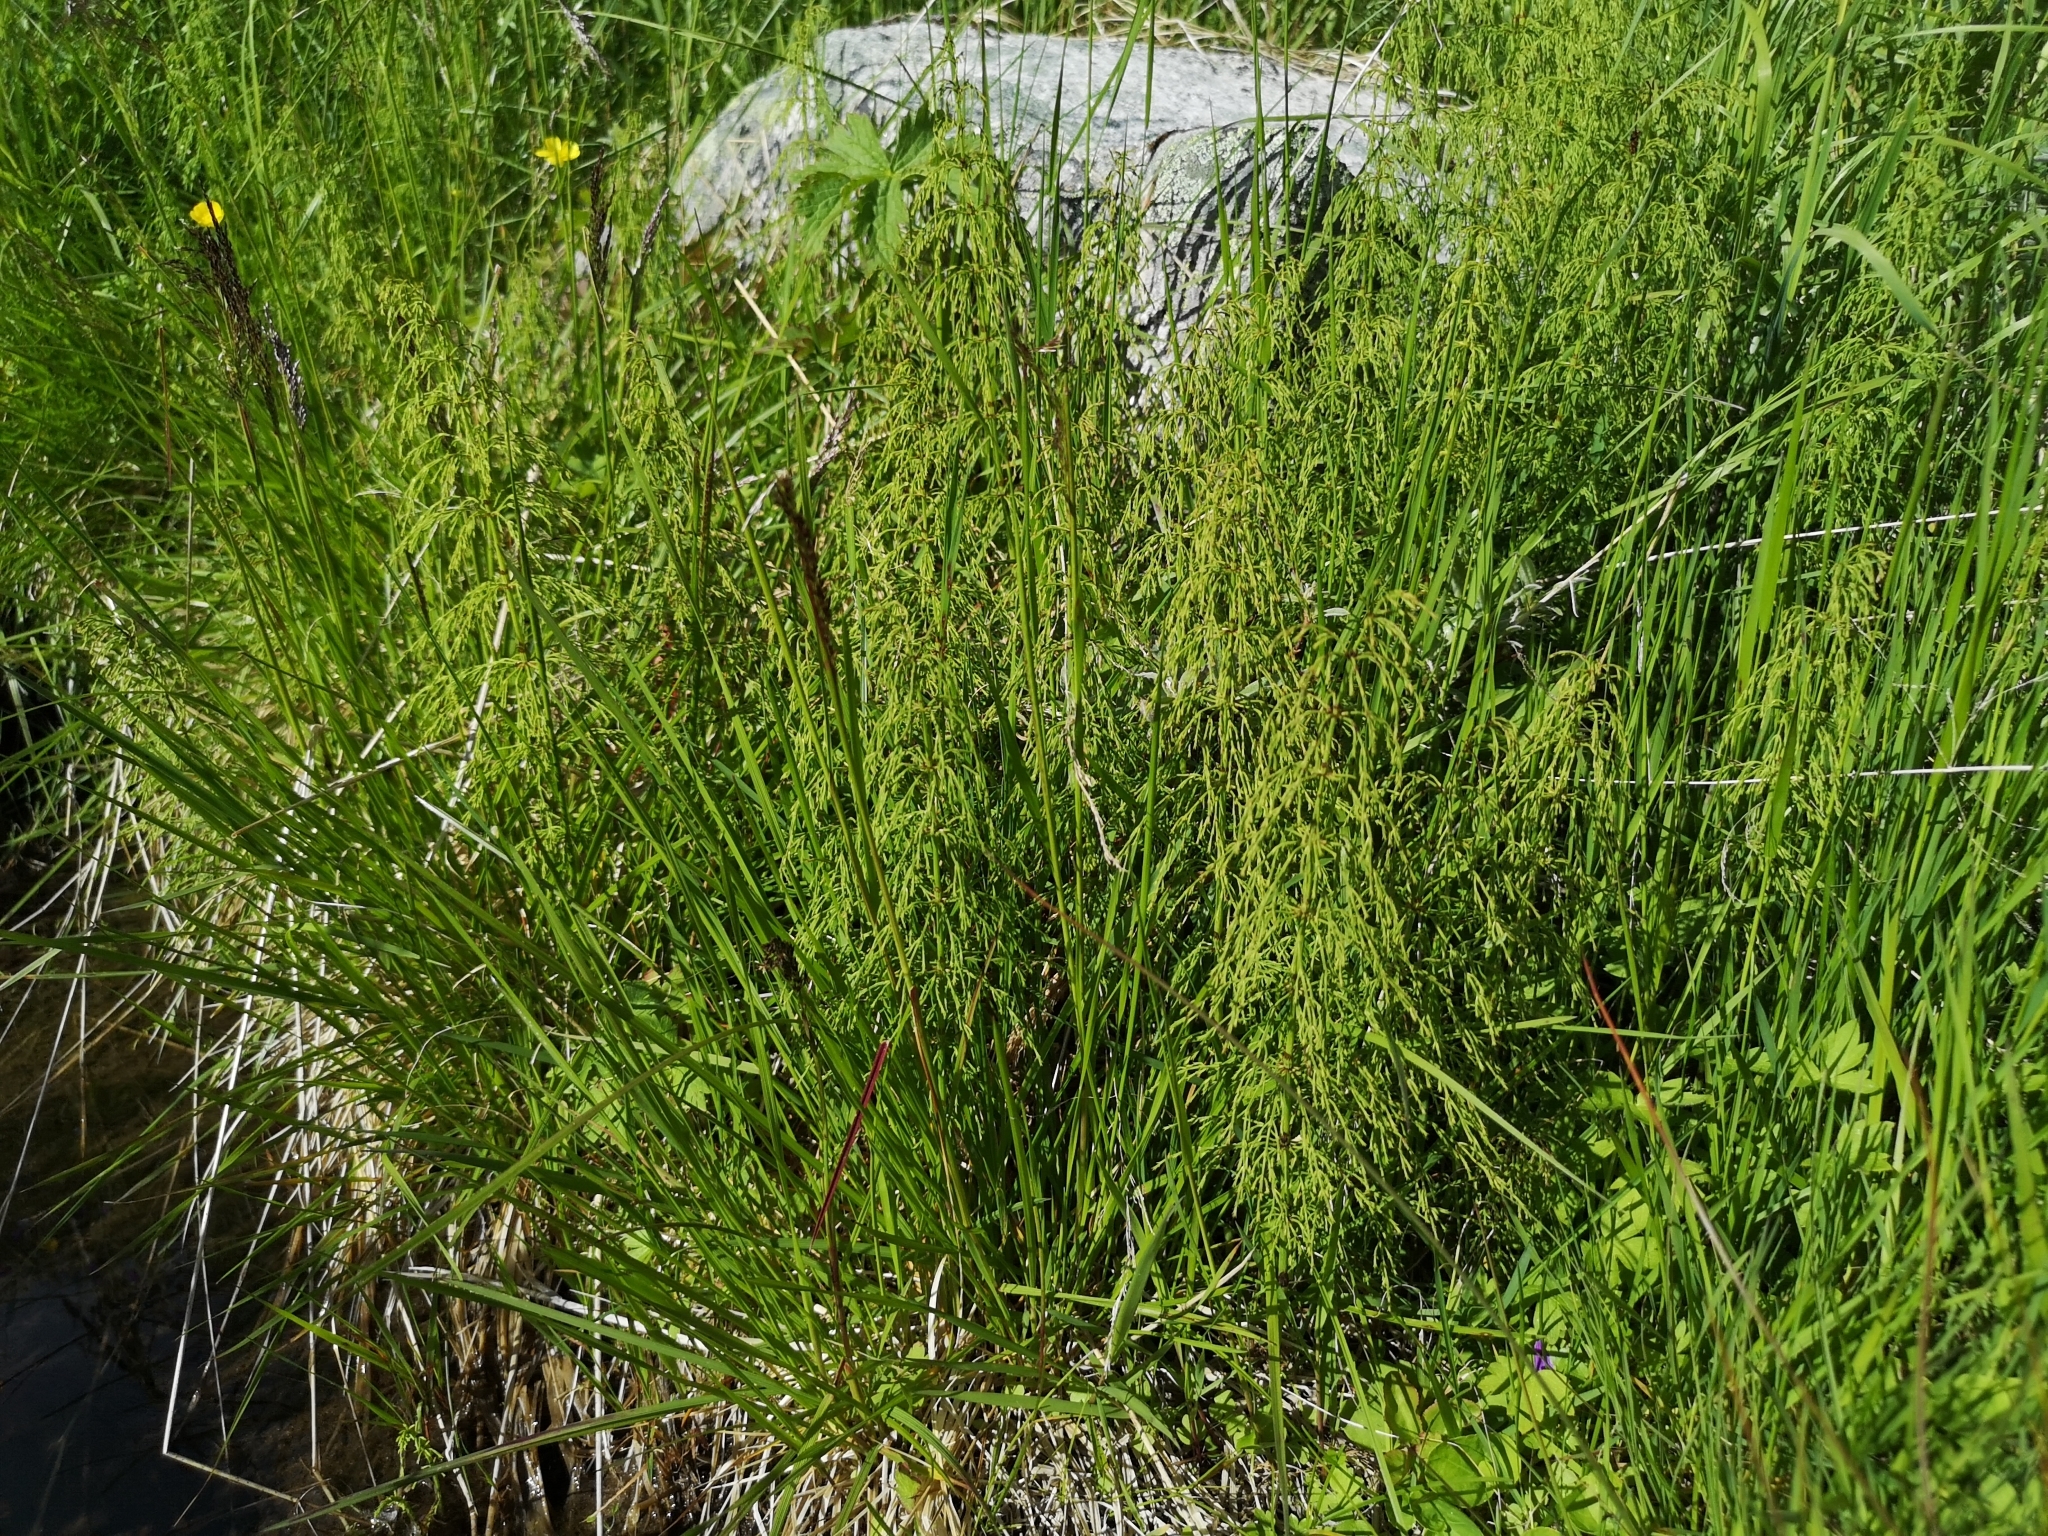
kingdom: Plantae
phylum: Tracheophyta
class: Polypodiopsida
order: Equisetales
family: Equisetaceae
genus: Equisetum
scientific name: Equisetum sylvaticum
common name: Wood horsetail
